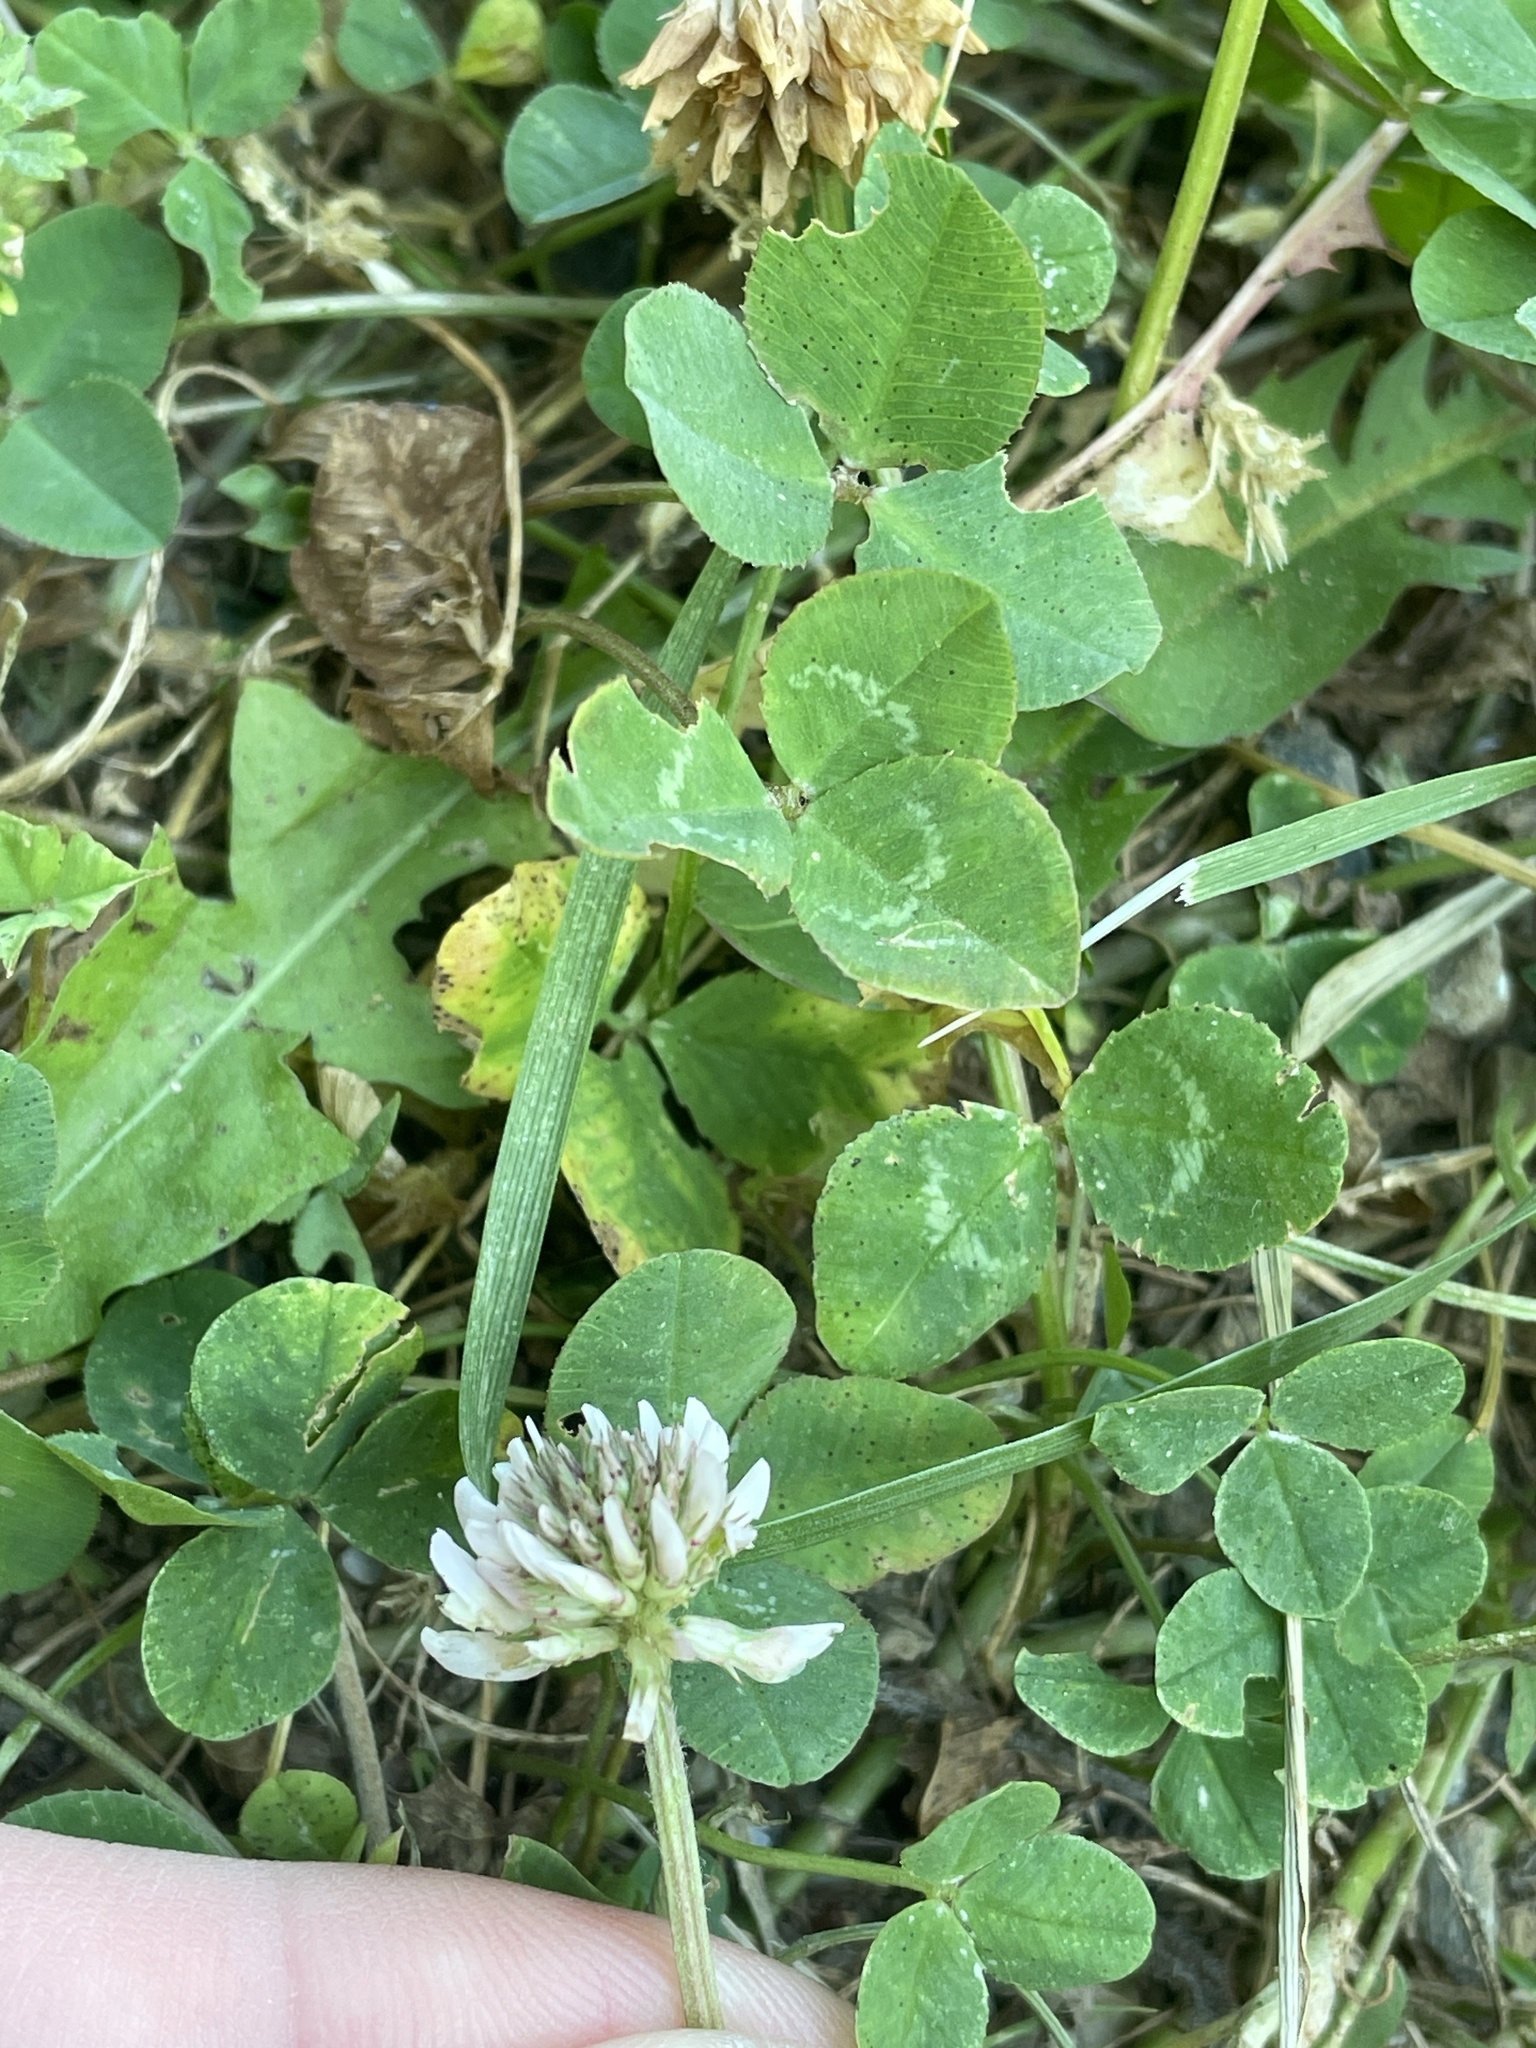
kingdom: Plantae
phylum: Tracheophyta
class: Magnoliopsida
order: Fabales
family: Fabaceae
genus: Trifolium
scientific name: Trifolium repens
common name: White clover
